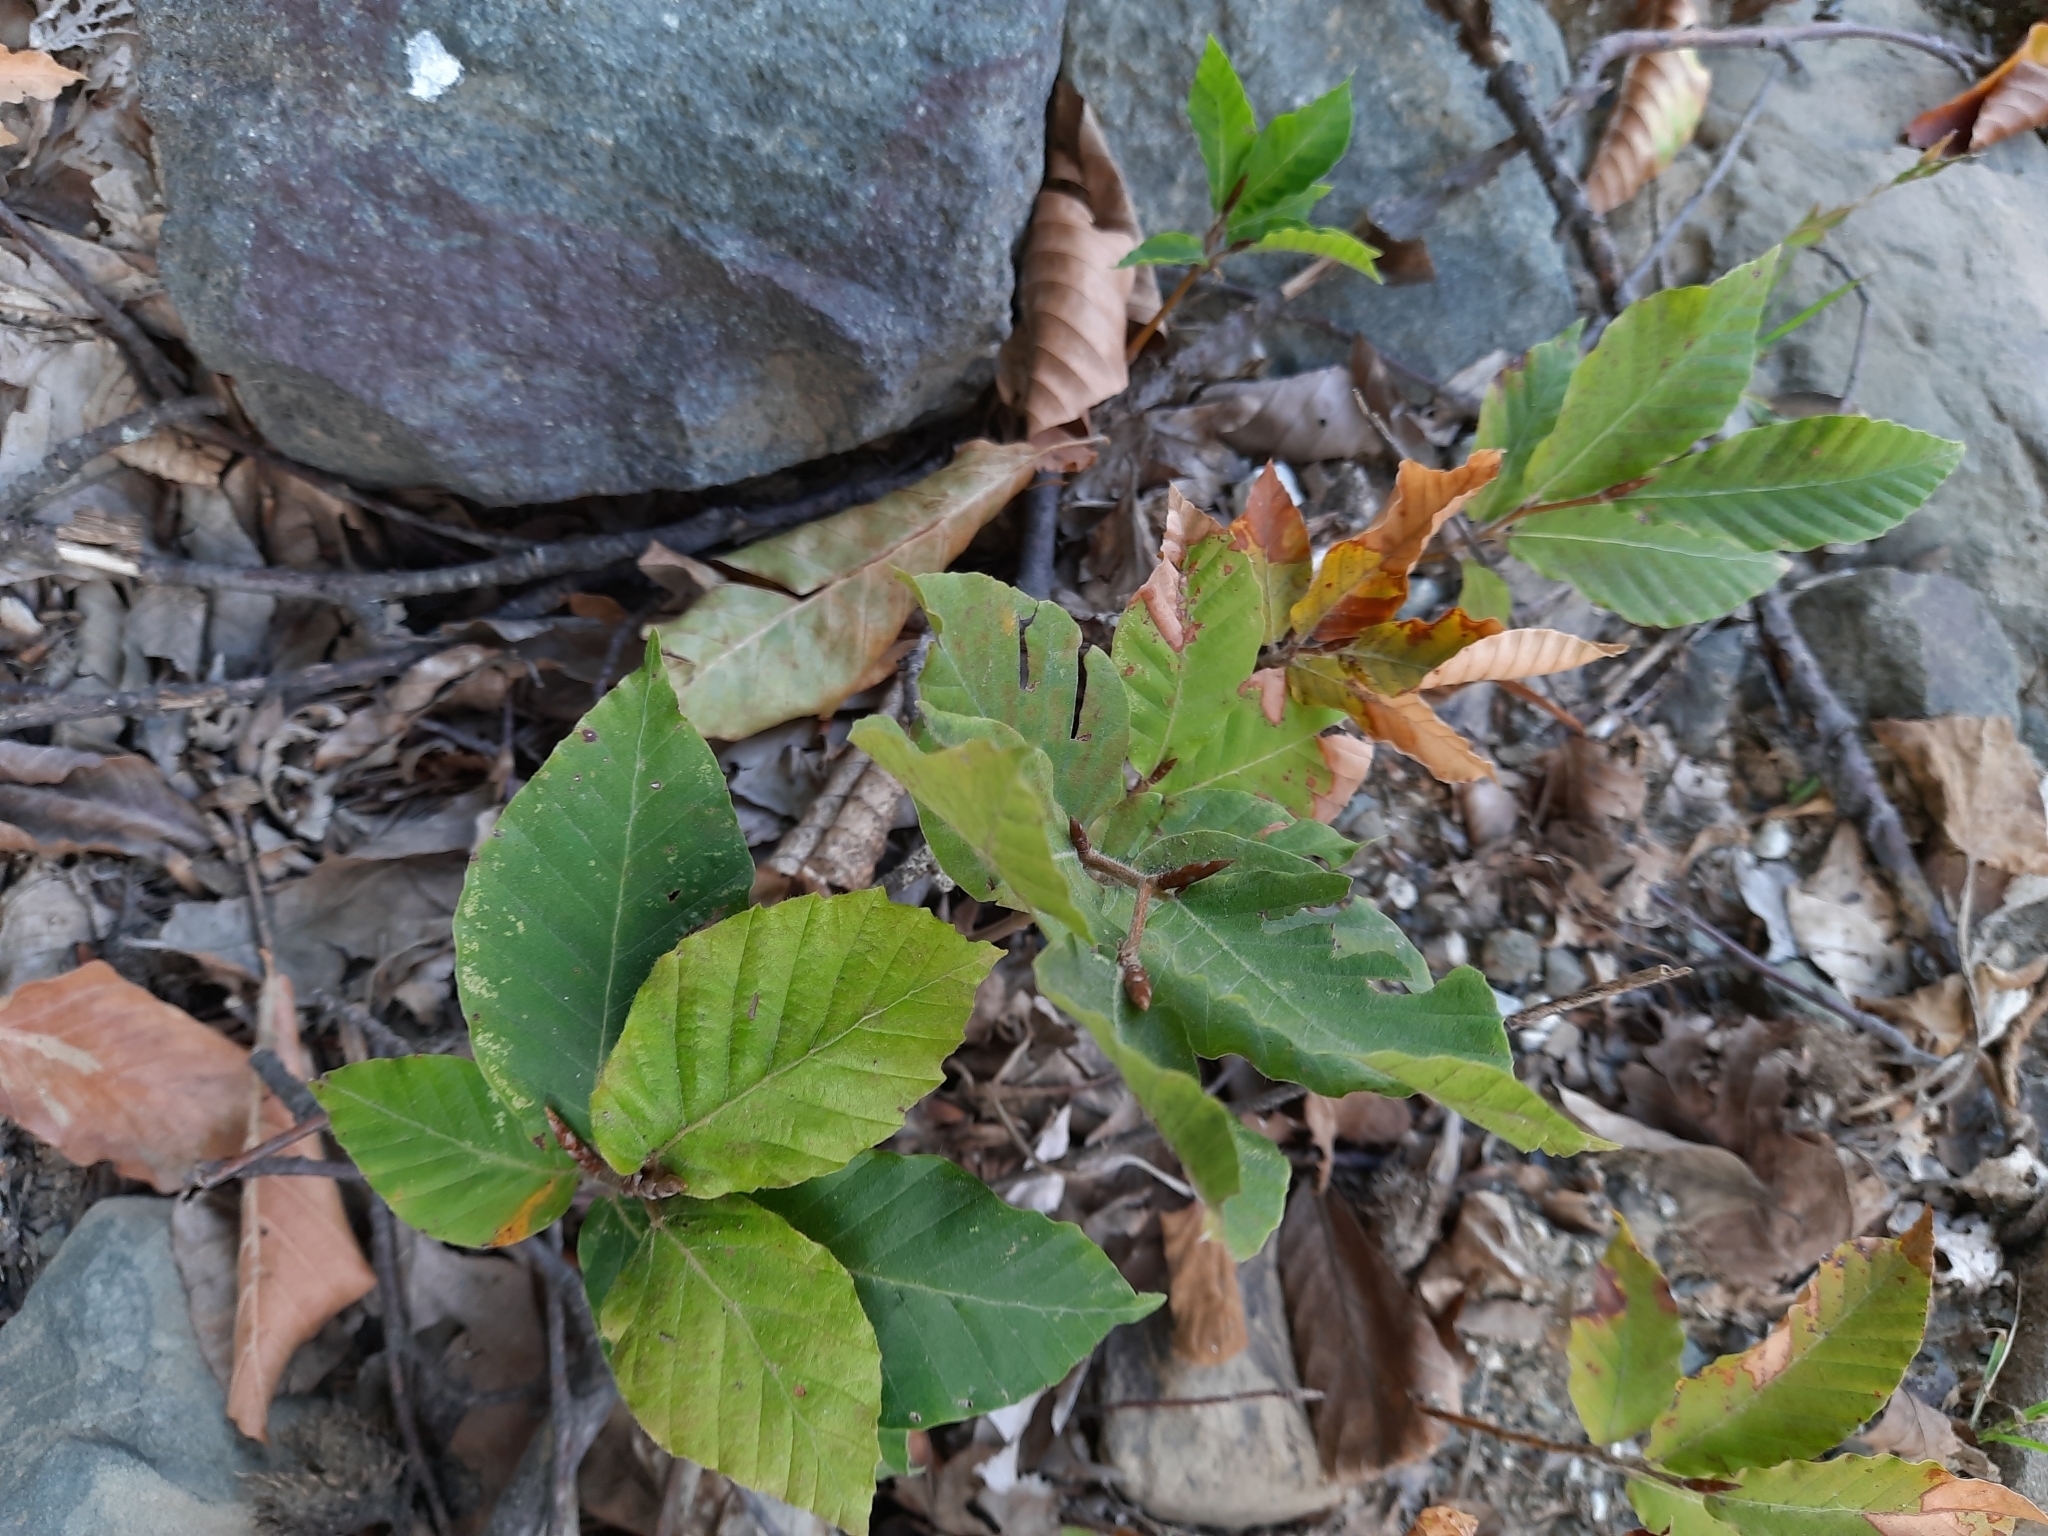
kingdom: Plantae
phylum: Tracheophyta
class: Magnoliopsida
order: Fagales
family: Fagaceae
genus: Fagus
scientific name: Fagus orientalis
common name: Oriental beech
